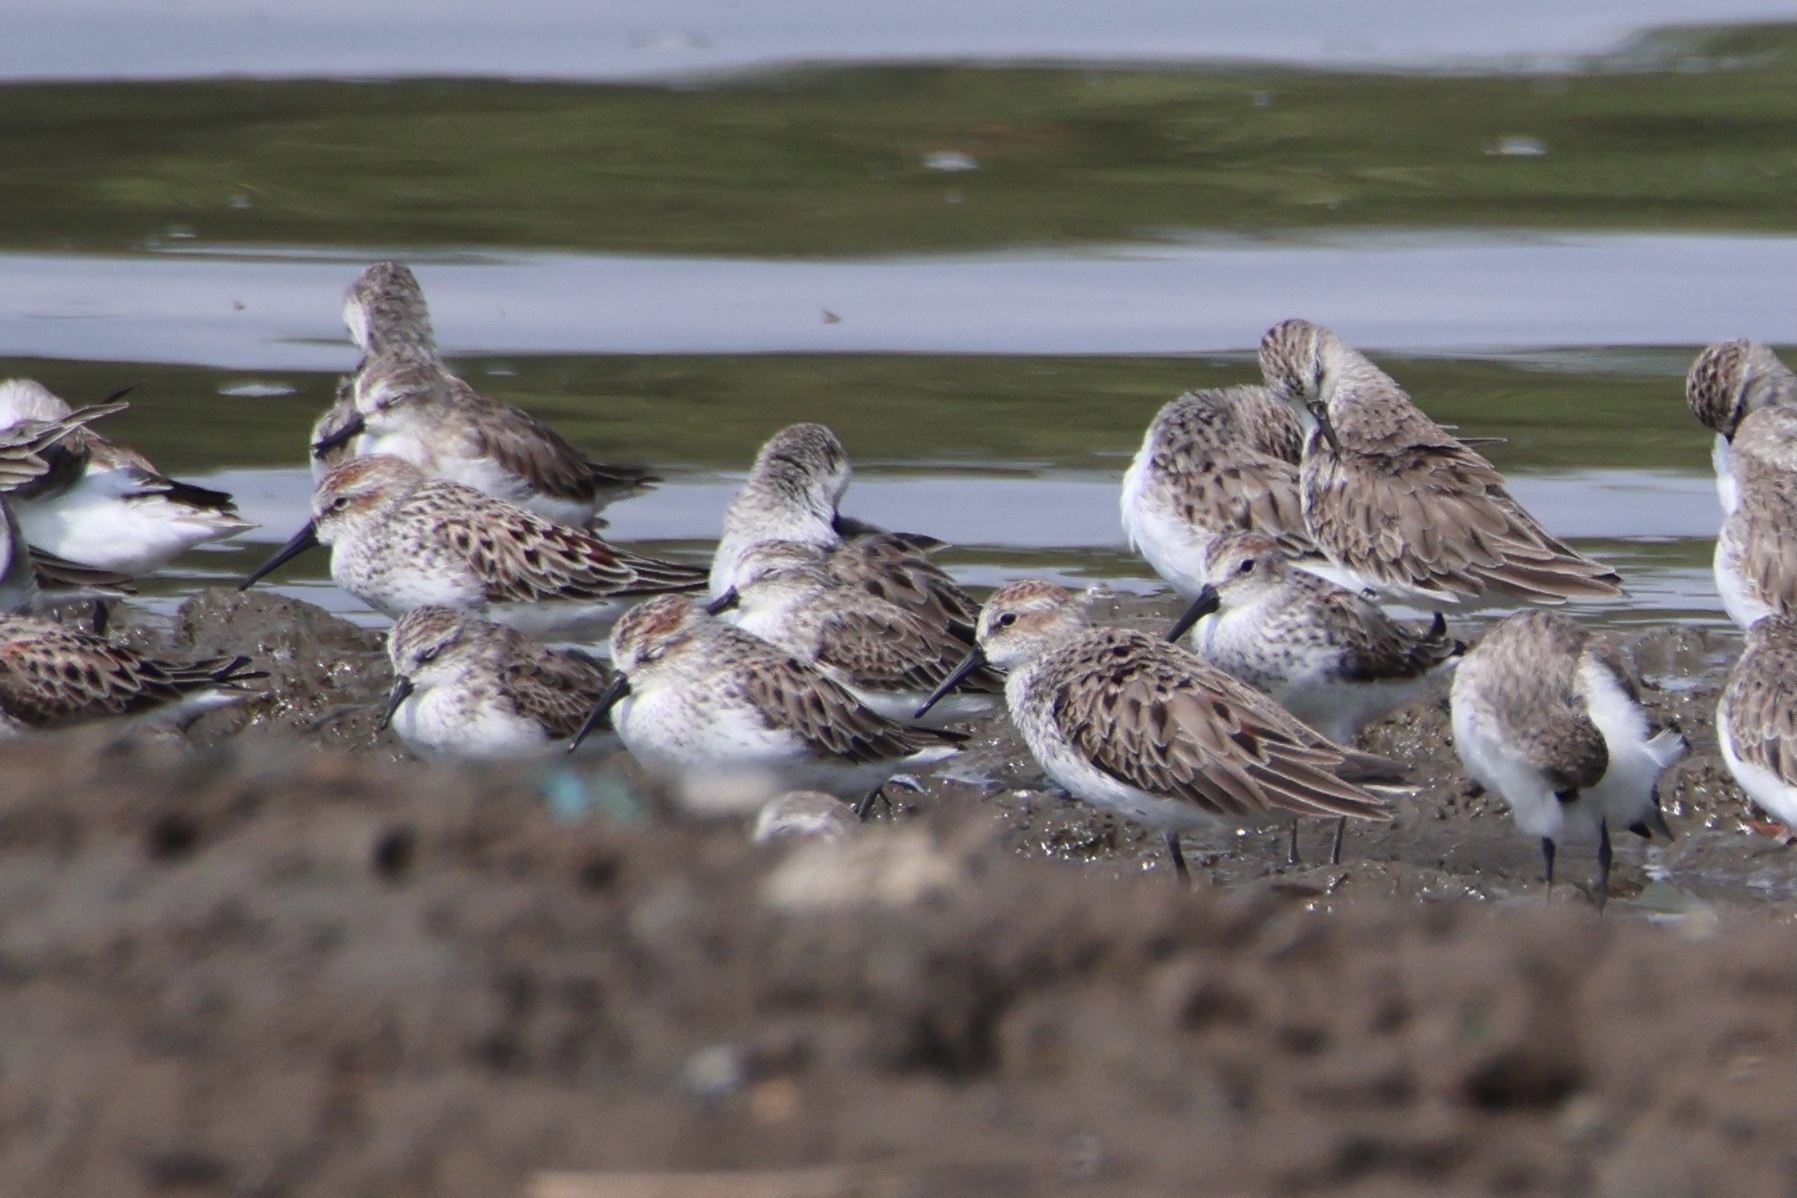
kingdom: Animalia
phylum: Chordata
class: Aves
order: Charadriiformes
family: Scolopacidae
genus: Calidris
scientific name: Calidris mauri
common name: Western sandpiper
